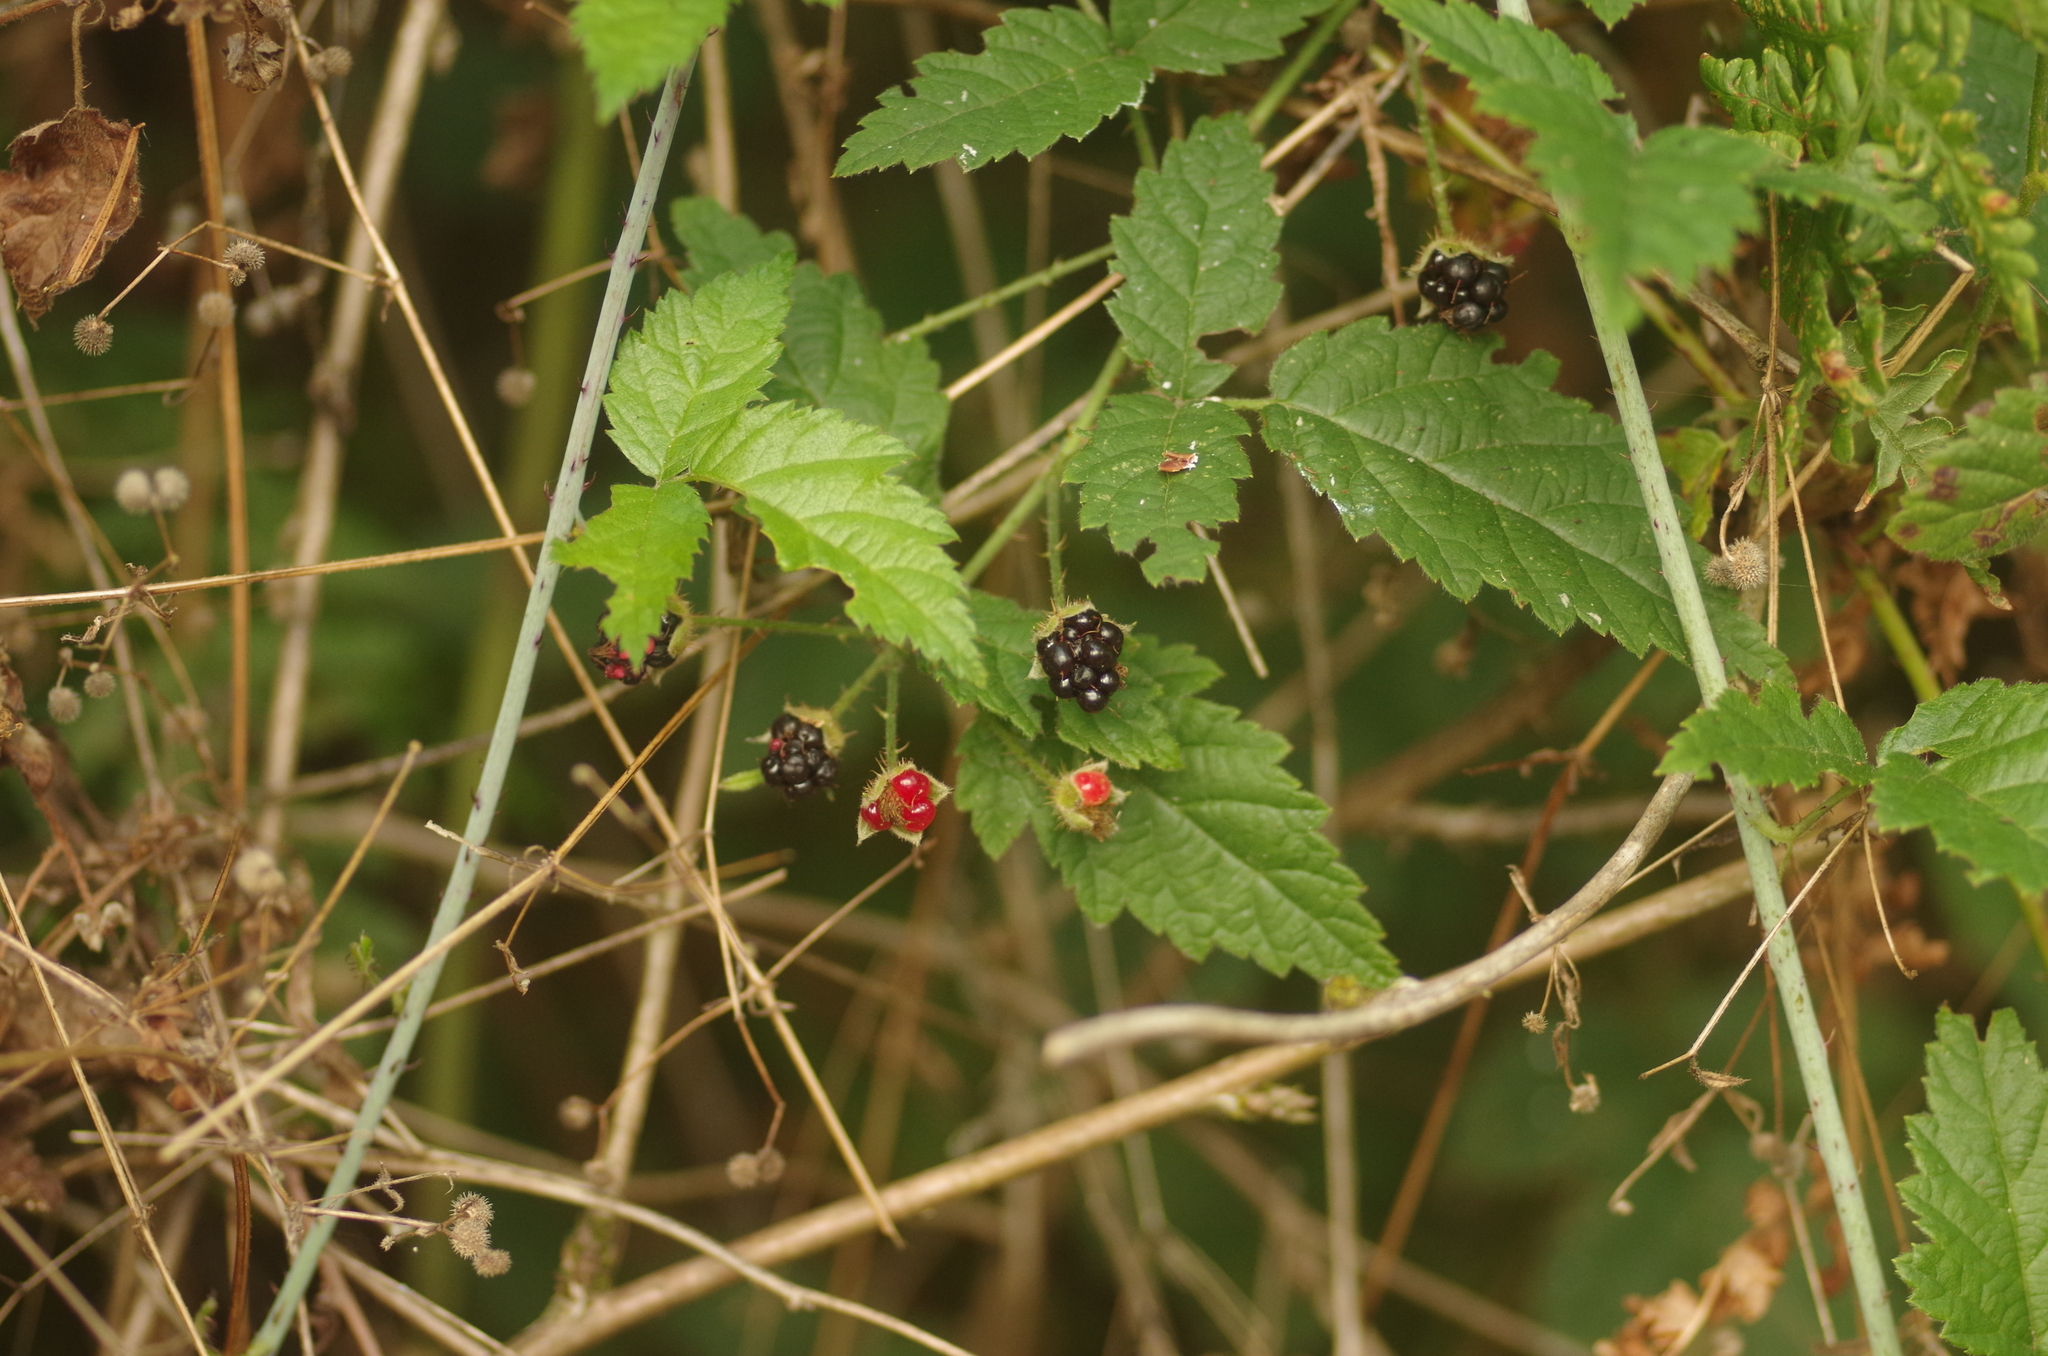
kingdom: Plantae
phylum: Tracheophyta
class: Magnoliopsida
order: Rosales
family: Rosaceae
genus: Rubus
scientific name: Rubus ursinus
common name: Pacific blackberry
